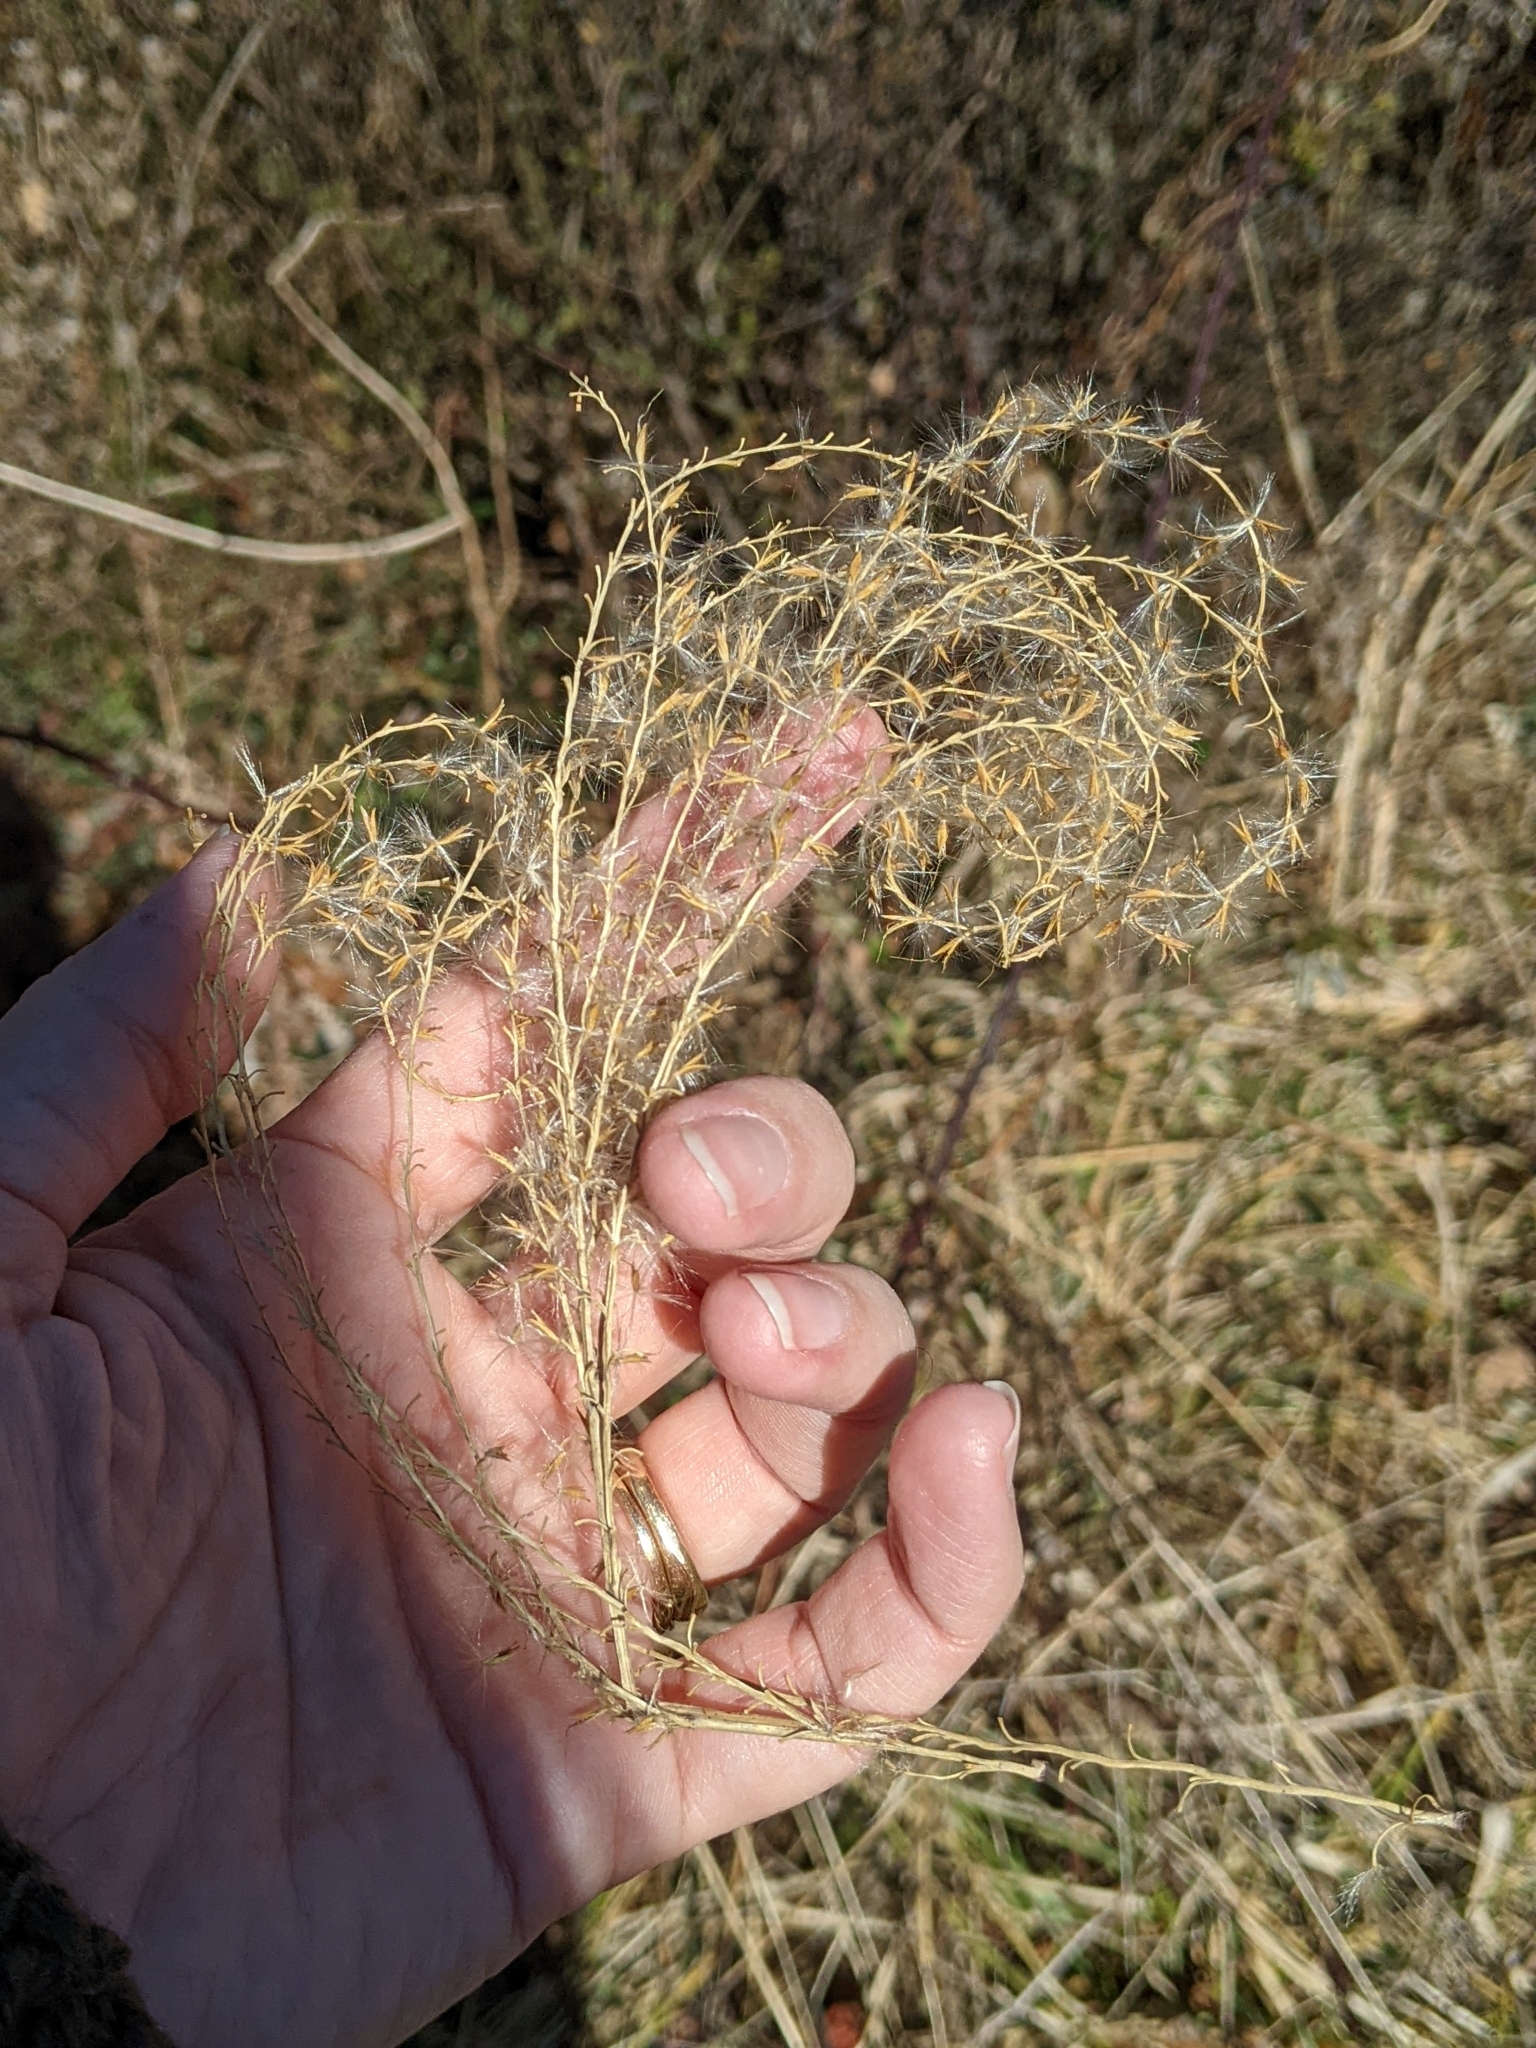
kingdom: Plantae
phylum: Tracheophyta
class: Liliopsida
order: Poales
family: Poaceae
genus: Miscanthus
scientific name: Miscanthus sinensis
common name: Chinese silvergrass
